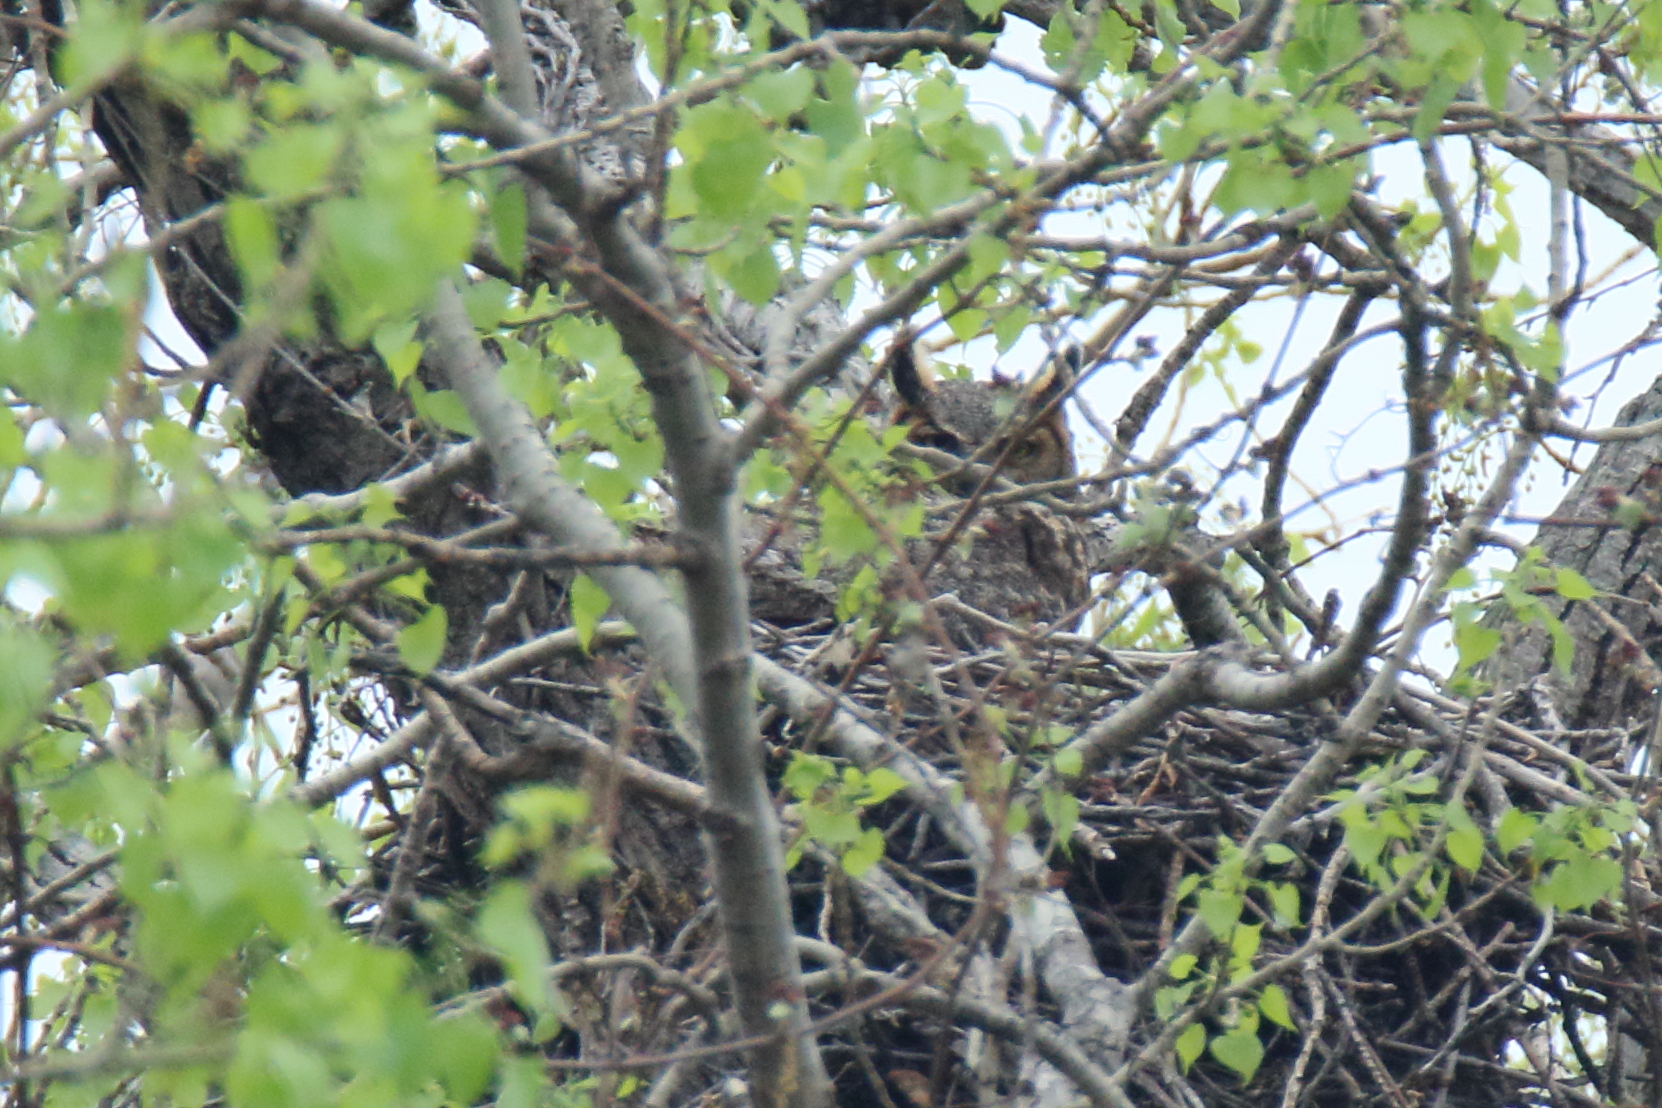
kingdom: Animalia
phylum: Chordata
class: Aves
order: Strigiformes
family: Strigidae
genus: Bubo
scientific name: Bubo virginianus
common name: Great horned owl
